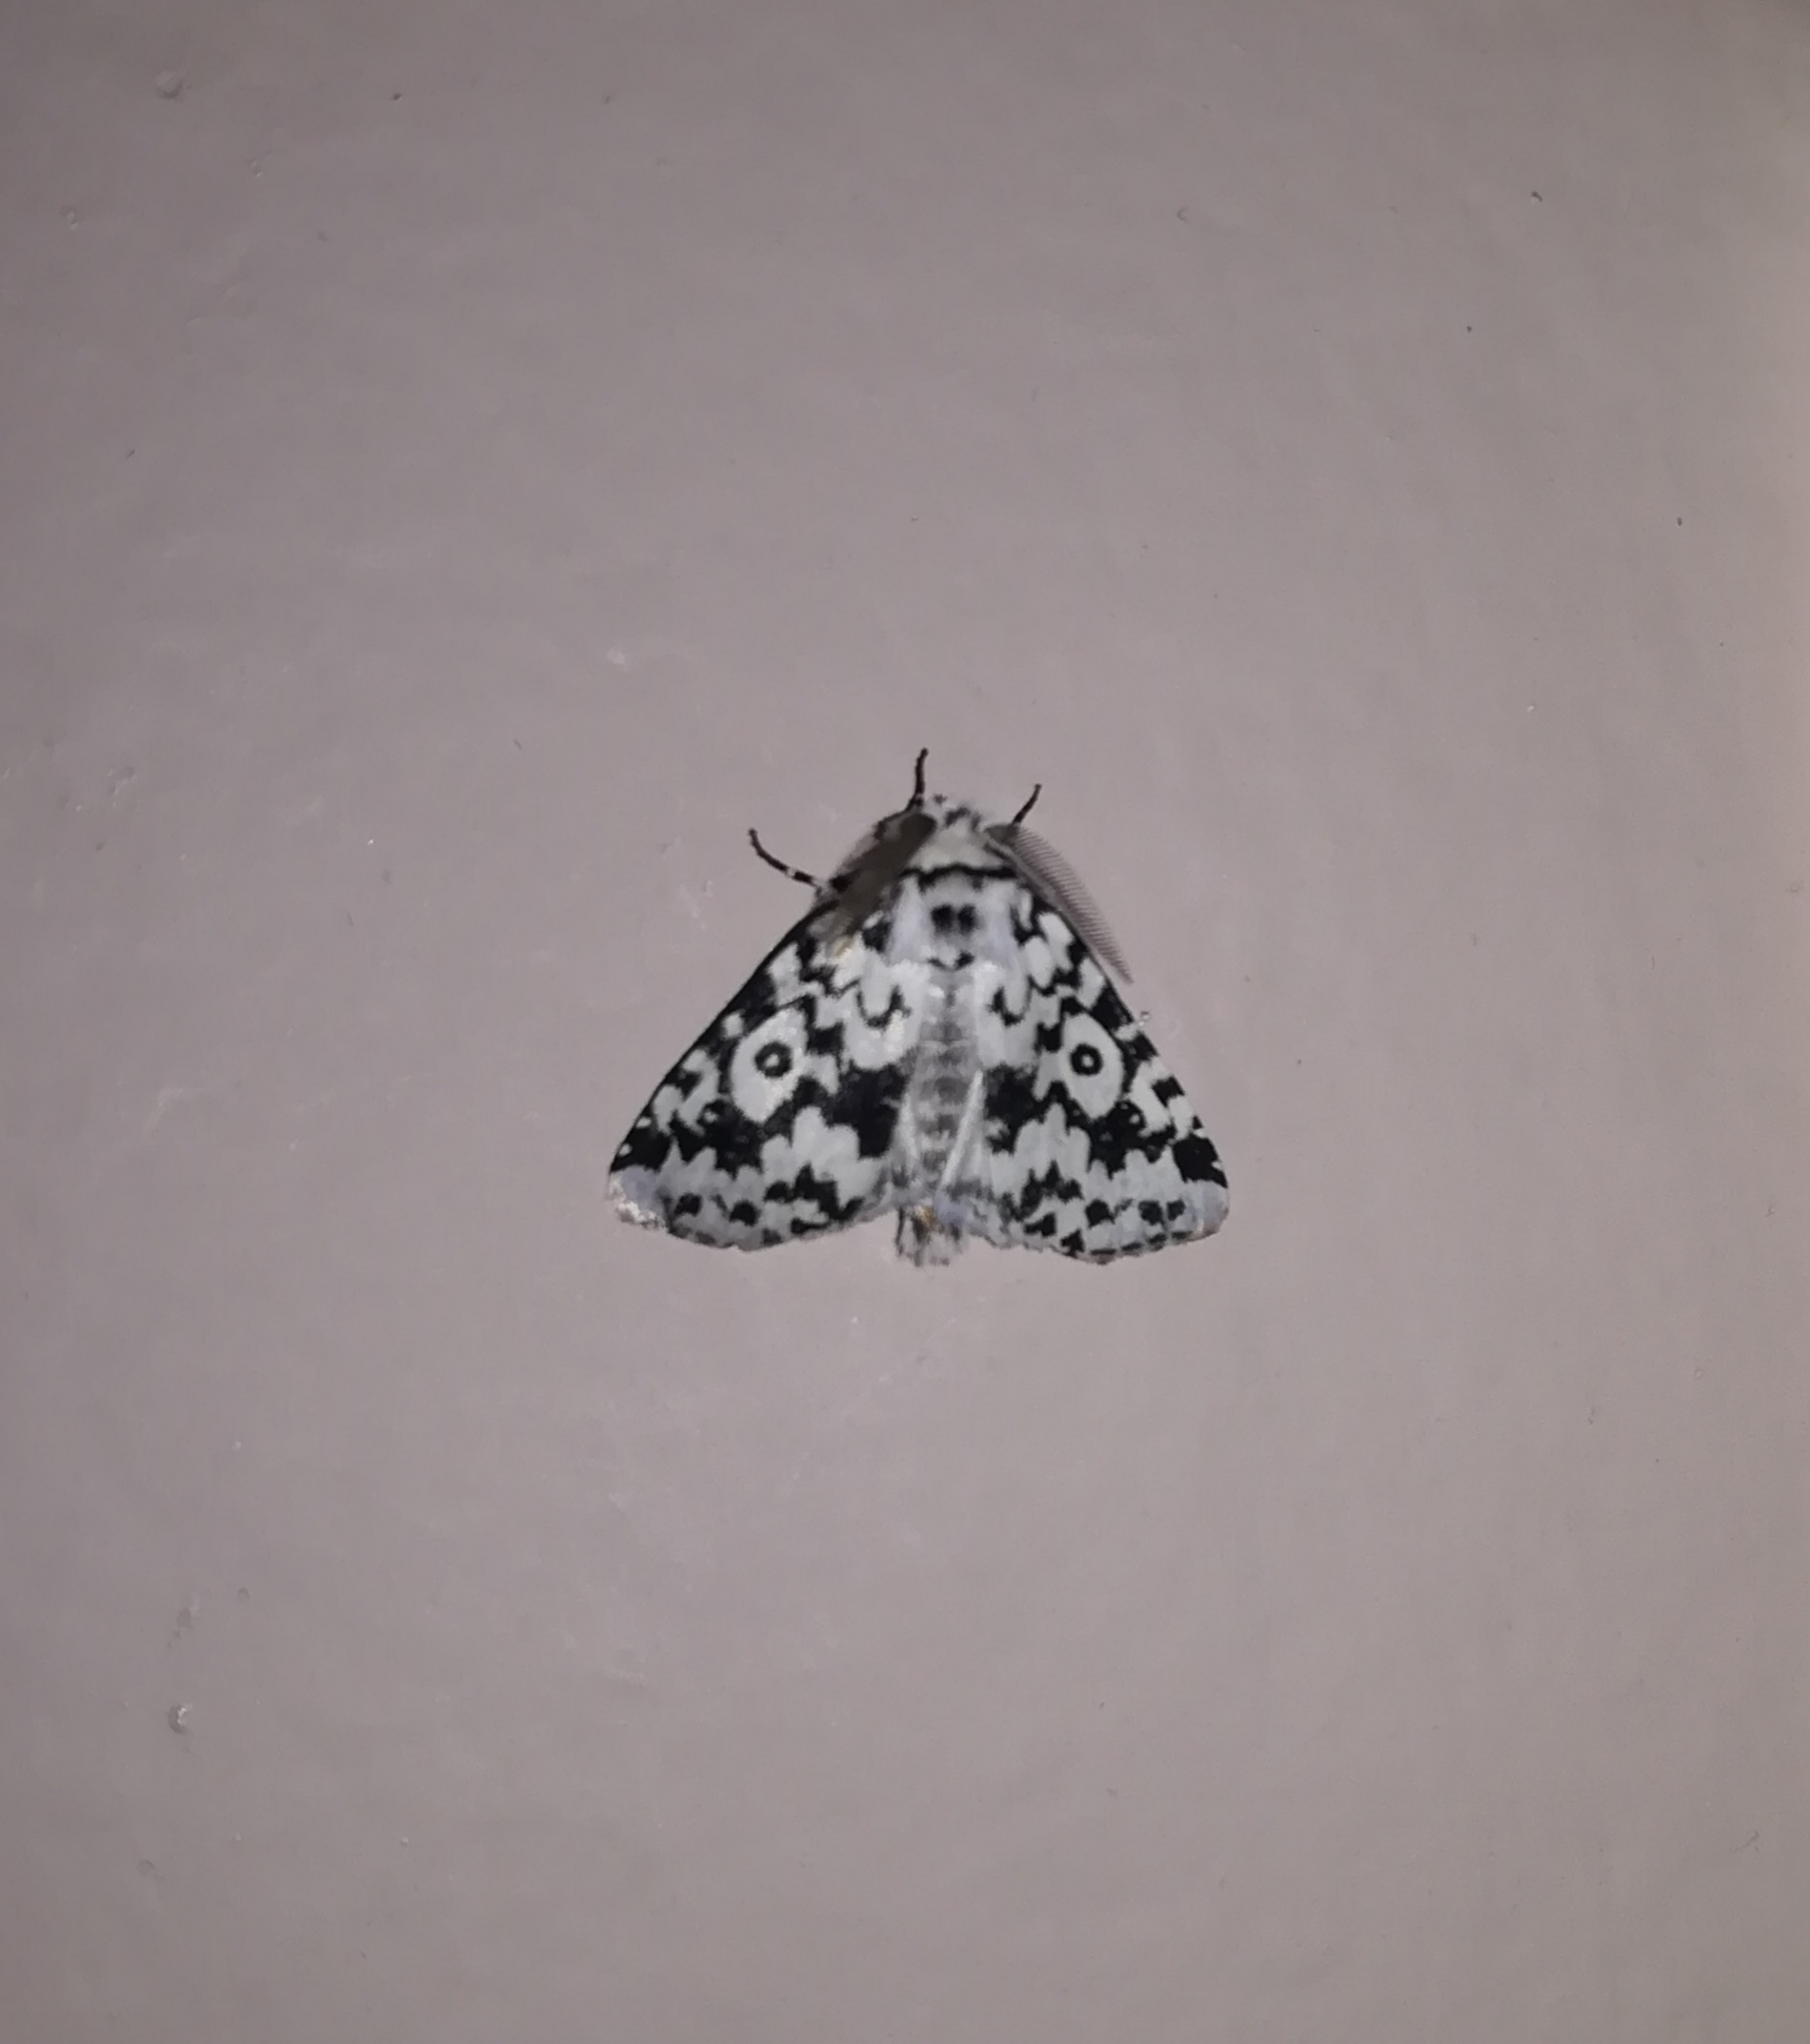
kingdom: Animalia
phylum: Arthropoda
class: Insecta
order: Lepidoptera
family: Erebidae
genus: Dasychira
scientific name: Dasychira octophora
